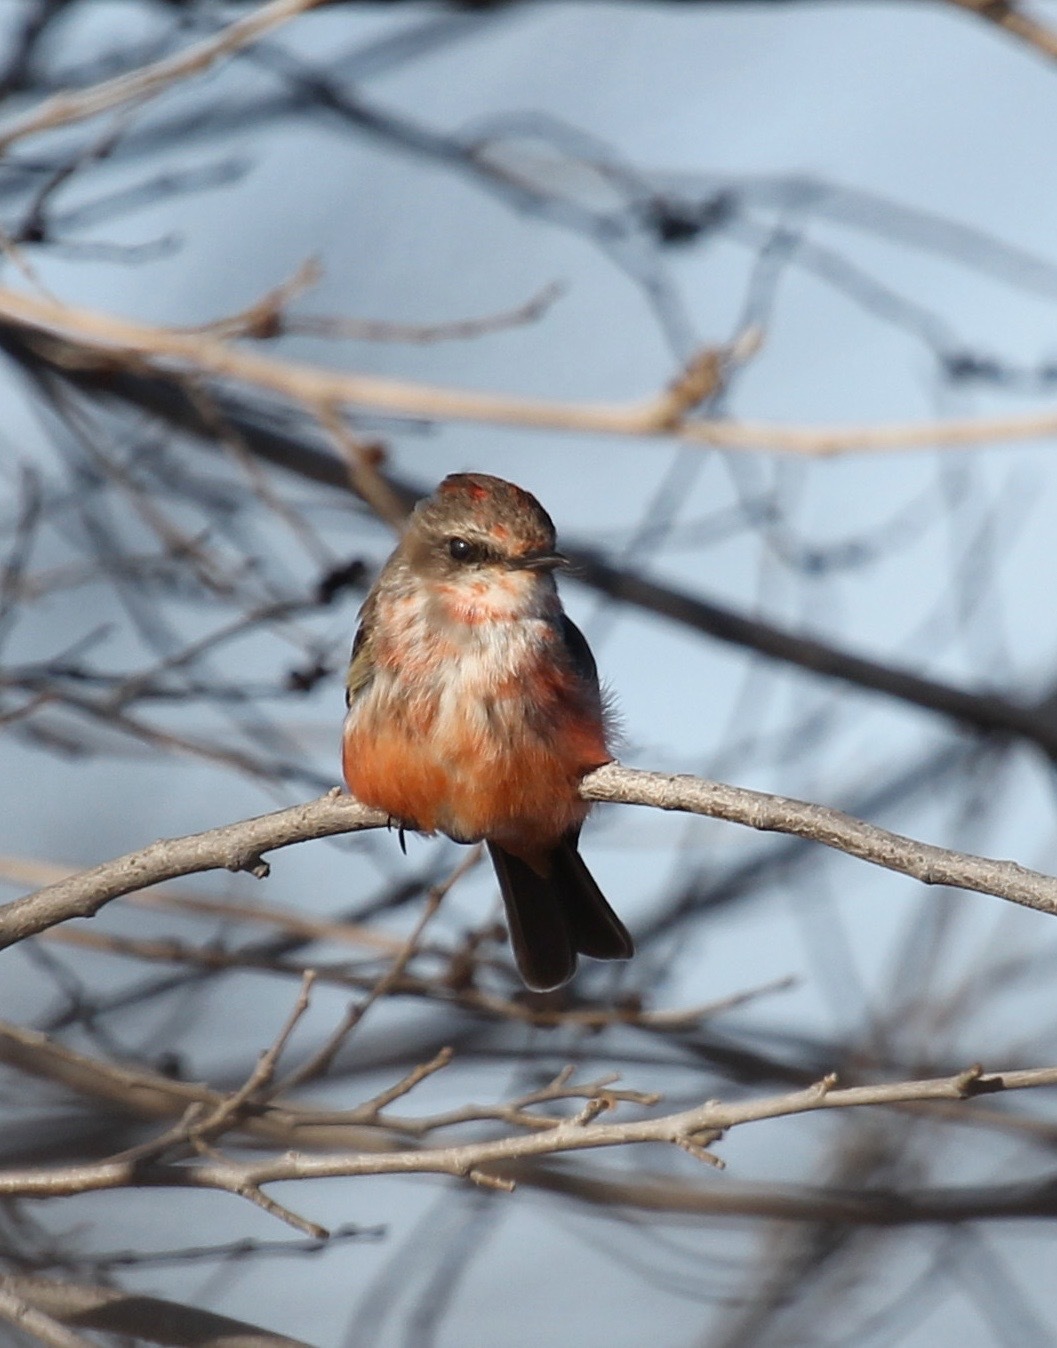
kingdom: Animalia
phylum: Chordata
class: Aves
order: Passeriformes
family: Tyrannidae
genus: Pyrocephalus
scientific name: Pyrocephalus rubinus
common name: Vermilion flycatcher
